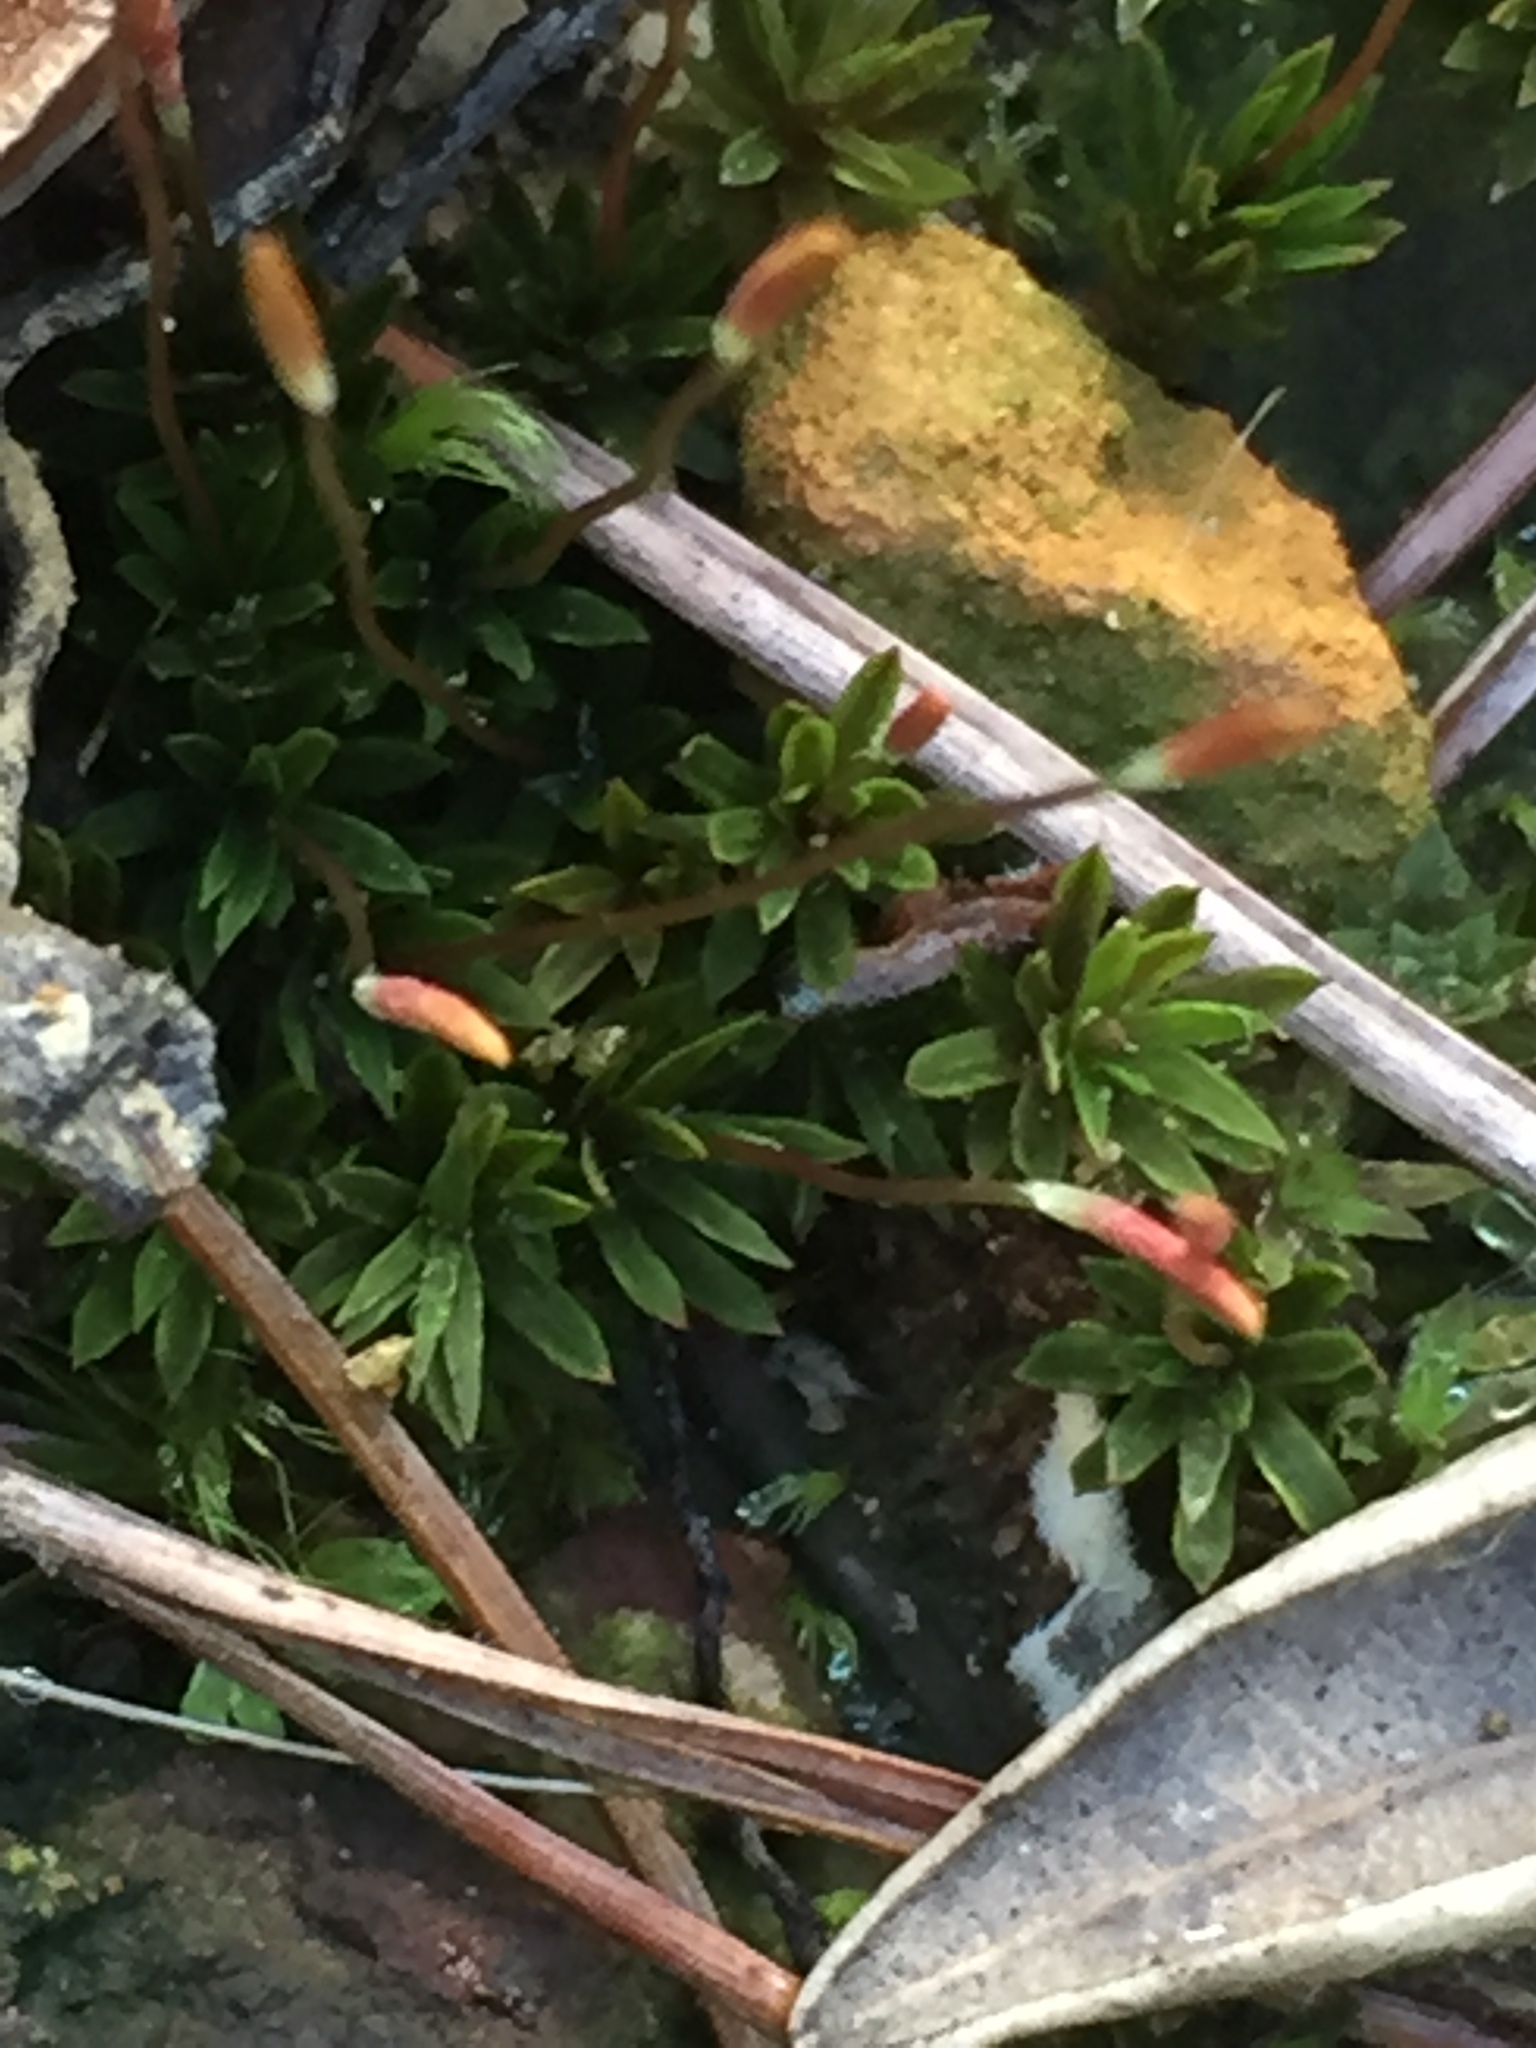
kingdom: Plantae
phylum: Bryophyta
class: Polytrichopsida
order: Polytrichales
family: Polytrichaceae
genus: Pogonatum
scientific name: Pogonatum subulatum
